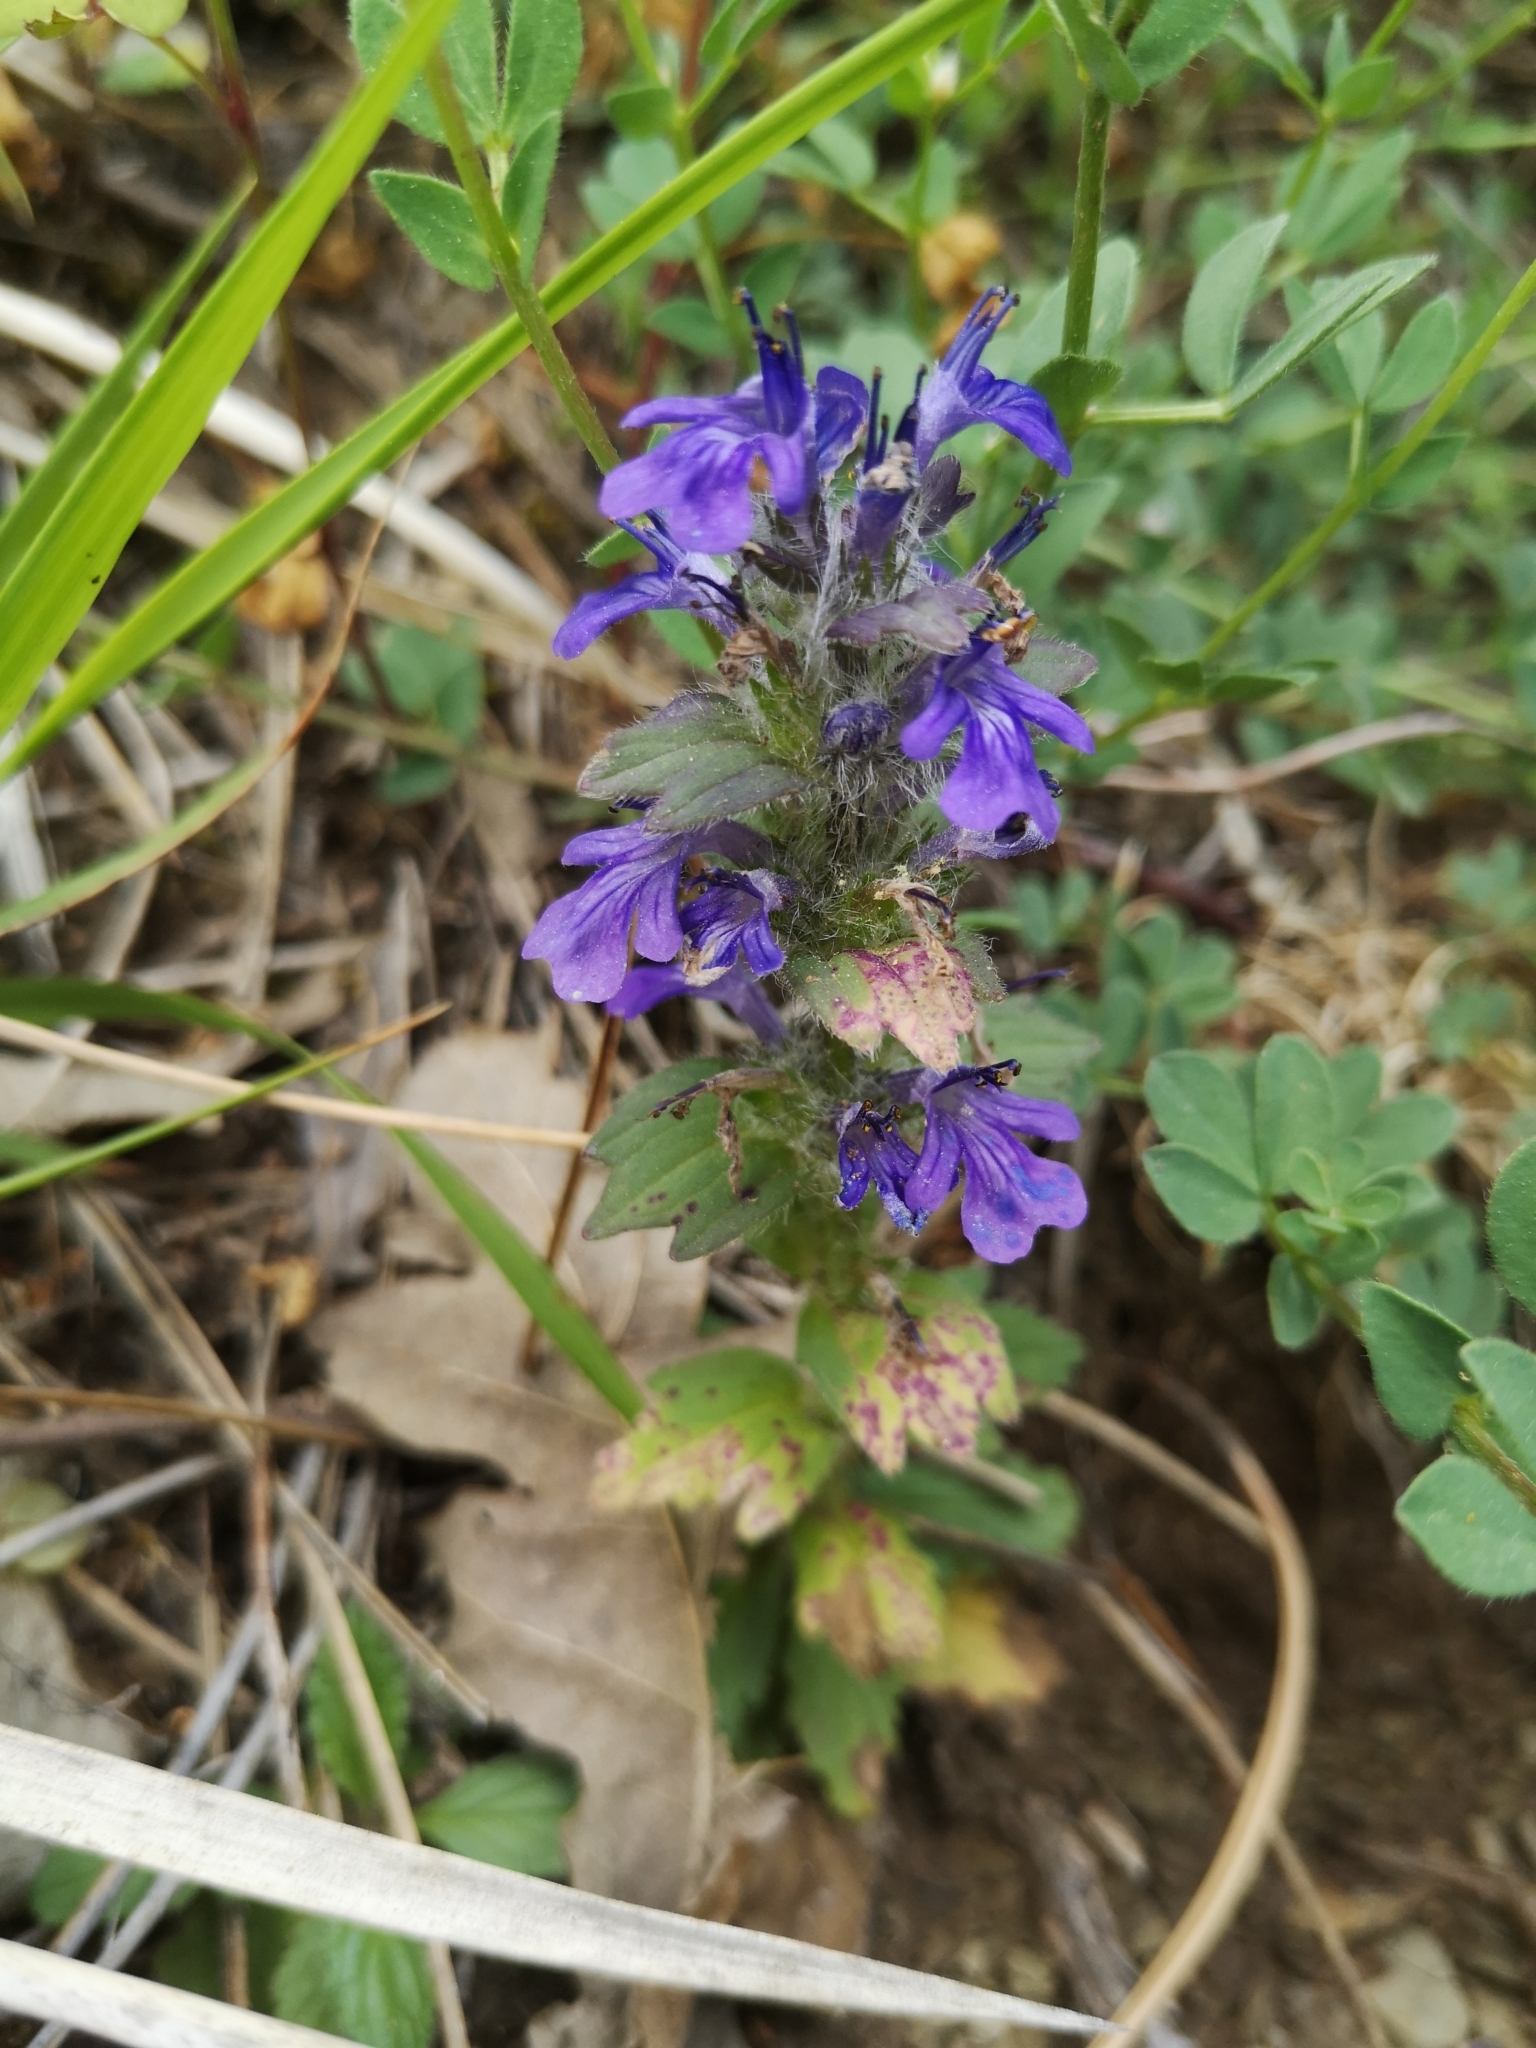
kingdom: Plantae
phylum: Tracheophyta
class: Magnoliopsida
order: Lamiales
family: Lamiaceae
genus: Ajuga
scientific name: Ajuga genevensis
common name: Blue bugle
